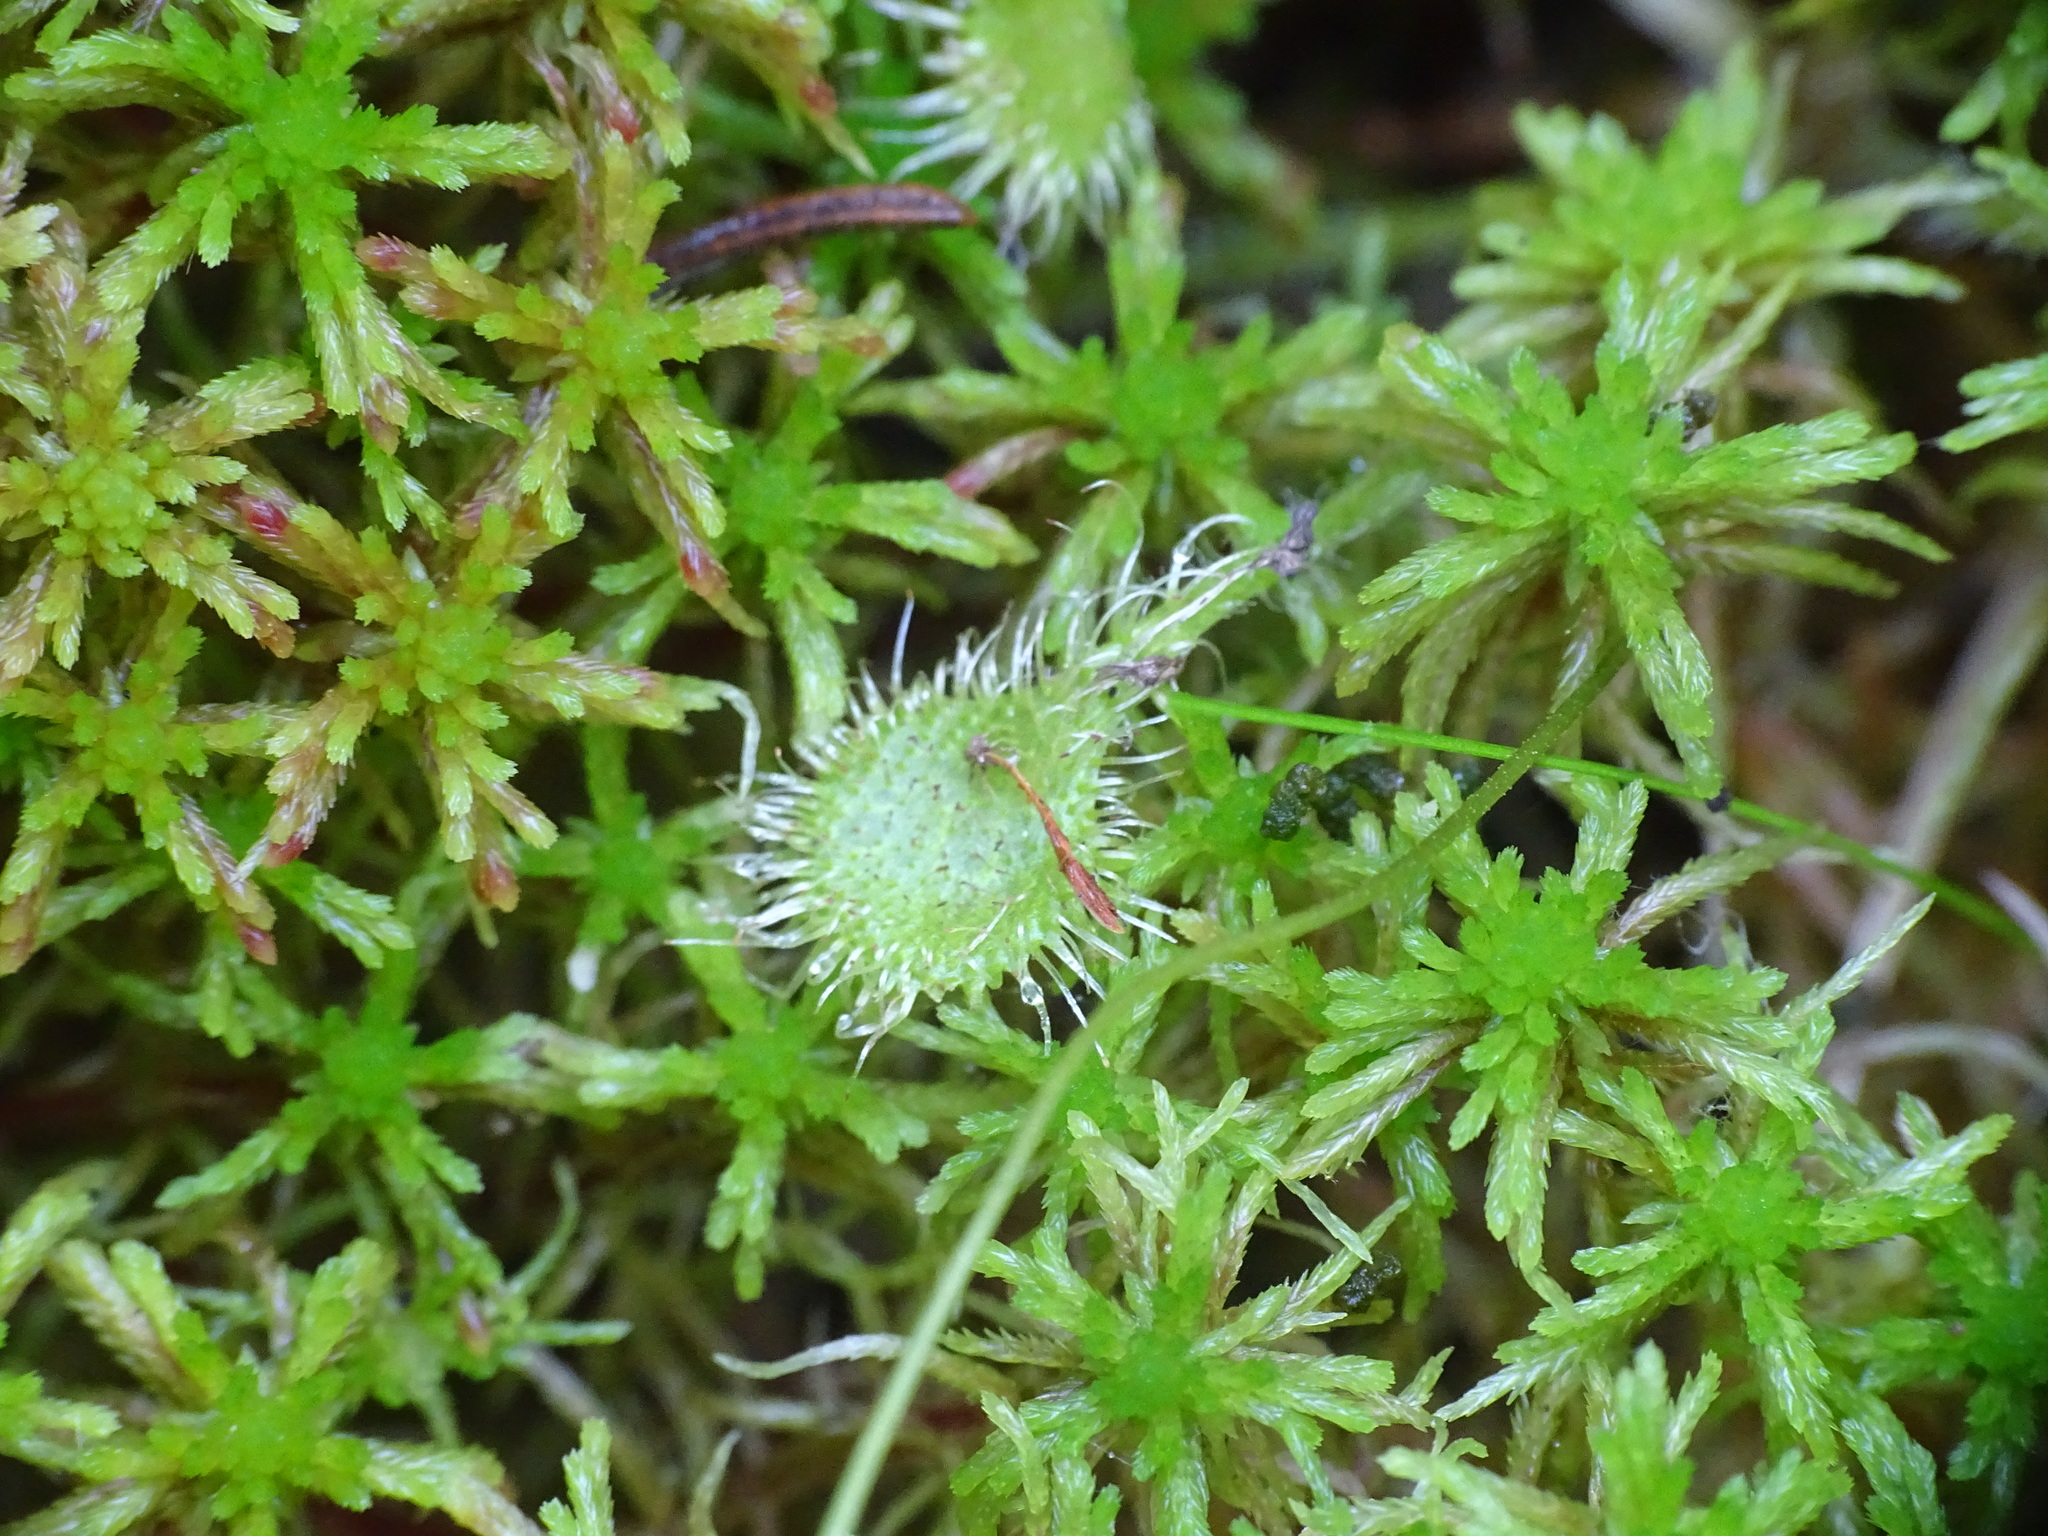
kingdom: Plantae
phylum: Tracheophyta
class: Magnoliopsida
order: Caryophyllales
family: Droseraceae
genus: Drosera
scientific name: Drosera rotundifolia
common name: Round-leaved sundew
